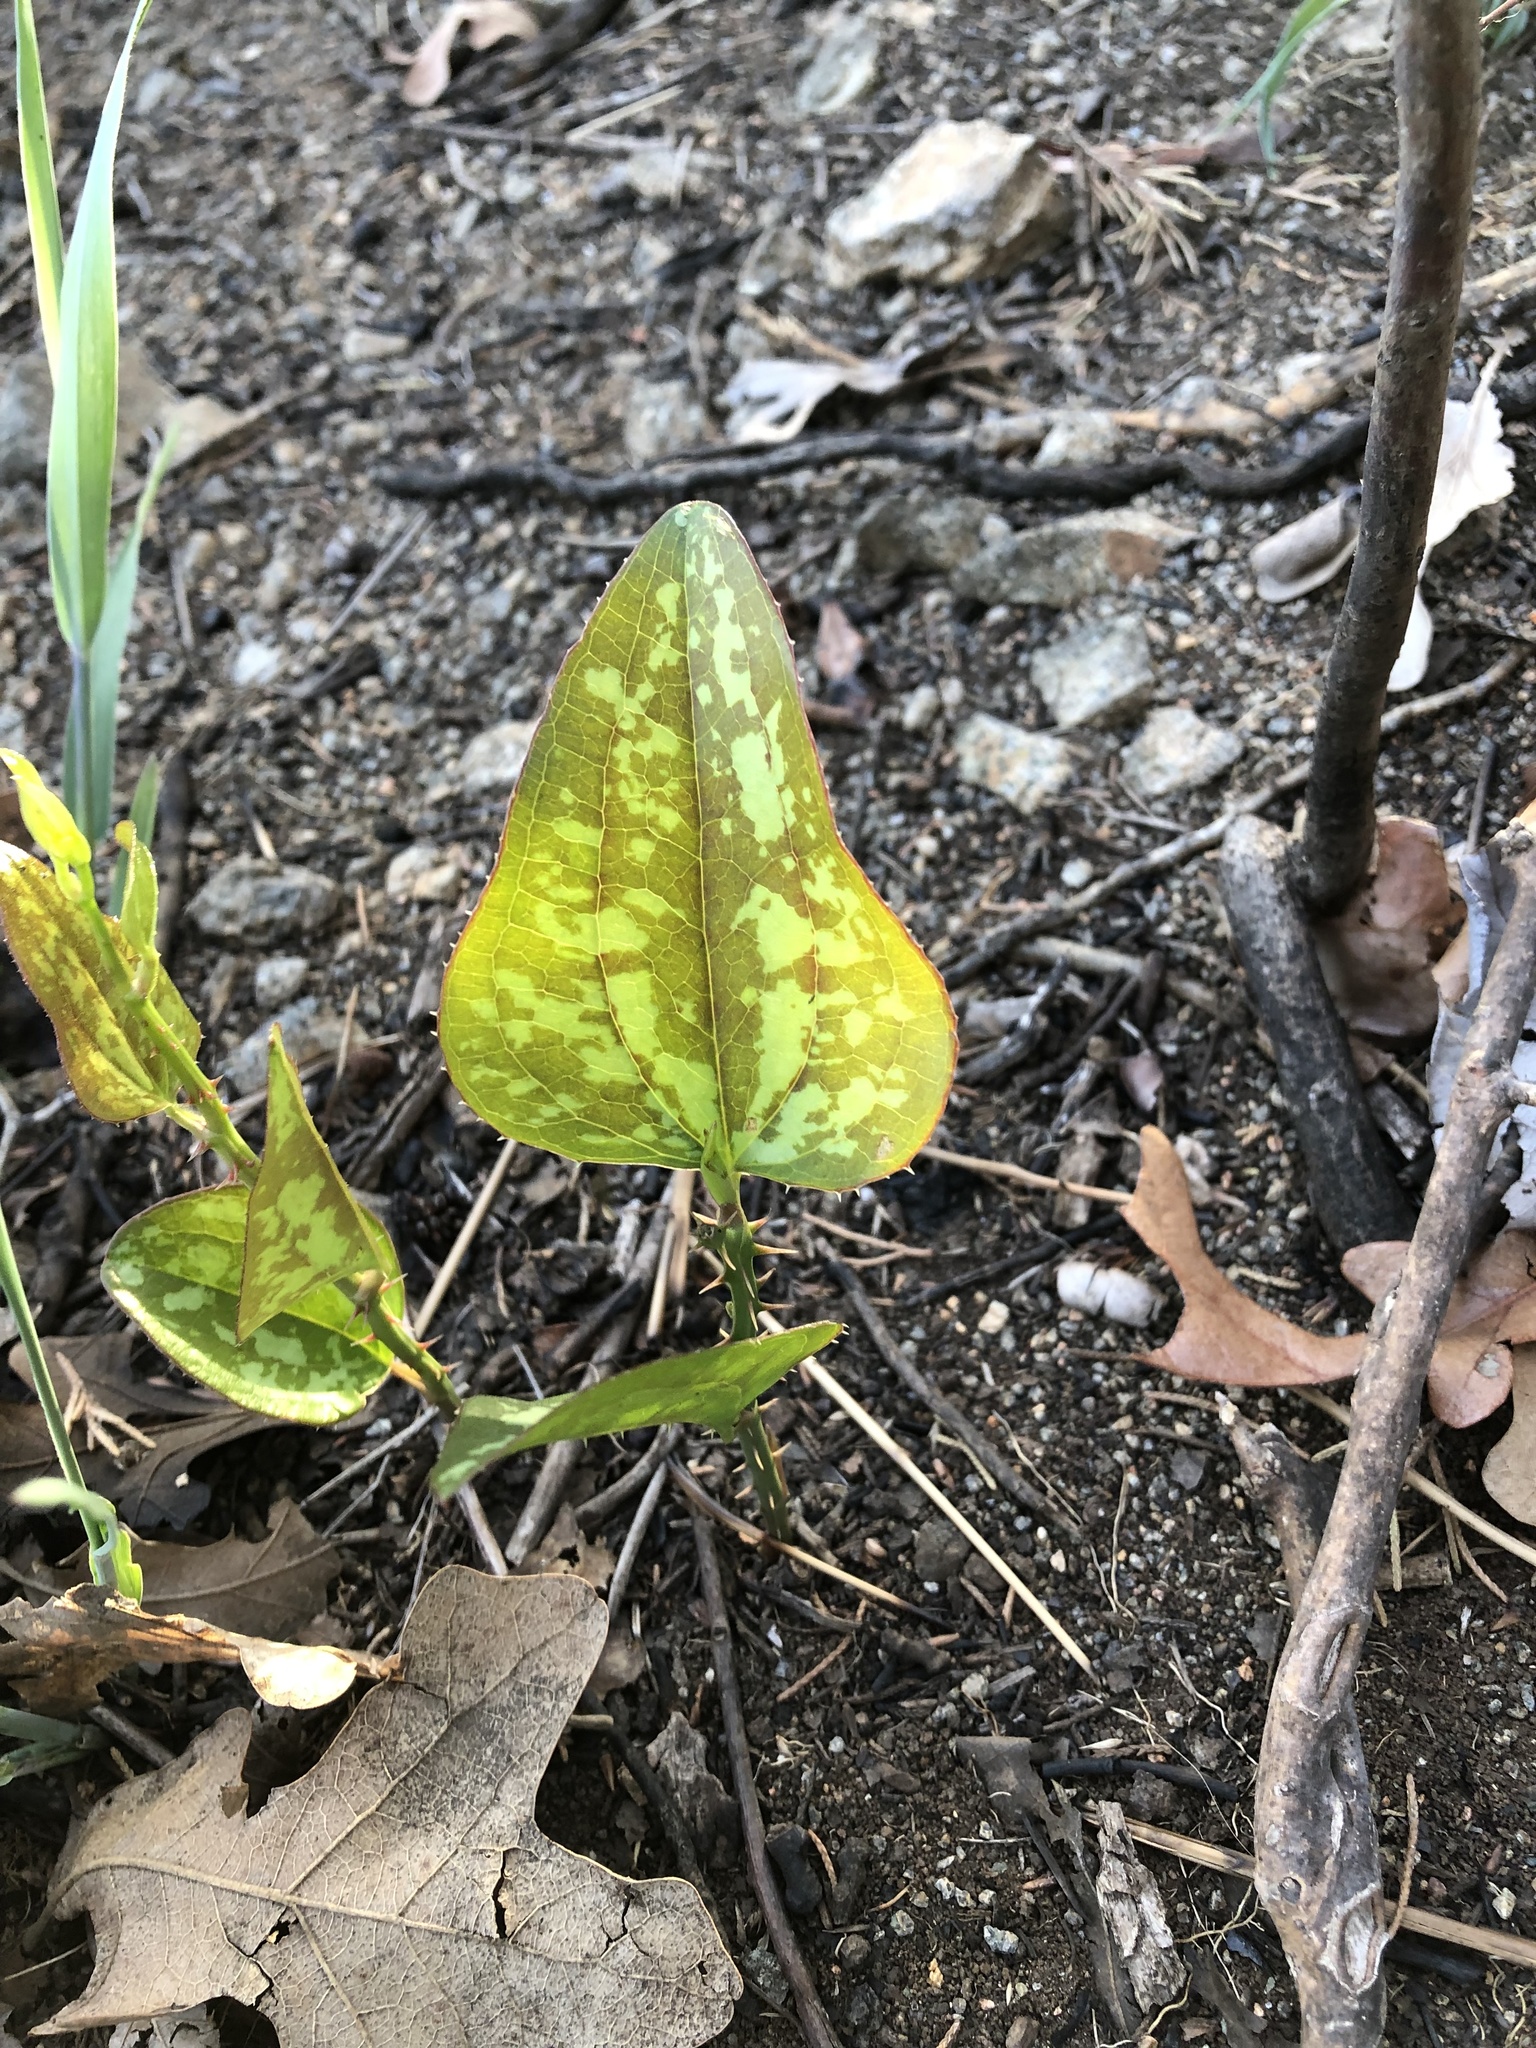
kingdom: Plantae
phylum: Tracheophyta
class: Liliopsida
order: Liliales
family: Smilacaceae
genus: Smilax
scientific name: Smilax bona-nox
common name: Catbrier
